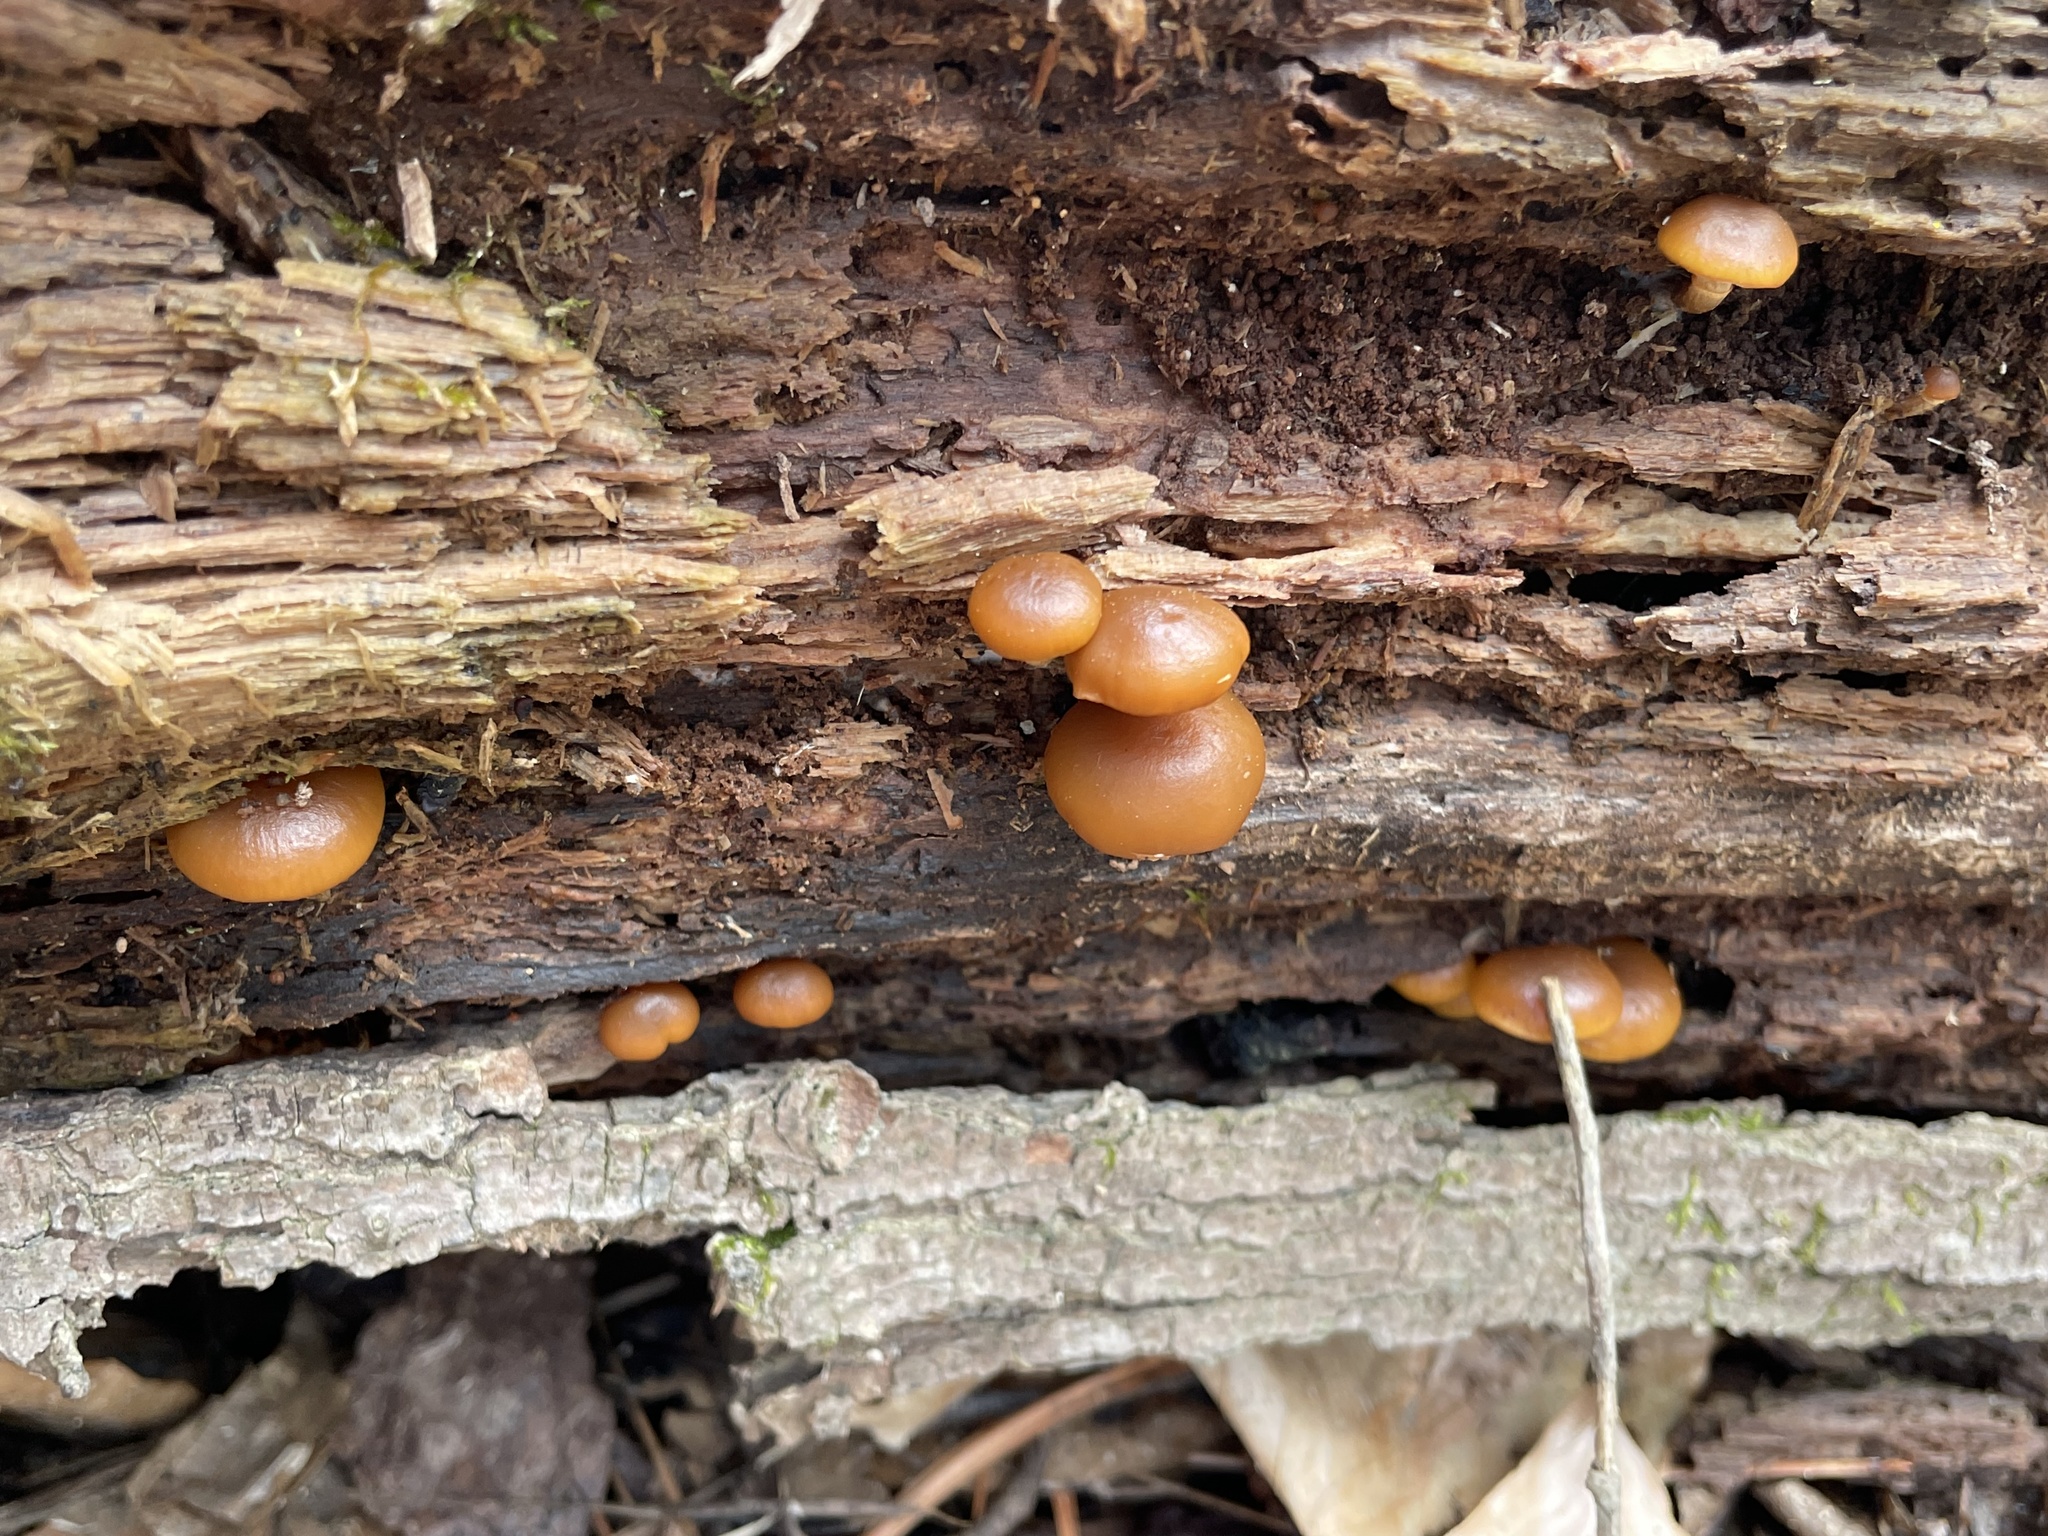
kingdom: Fungi
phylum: Basidiomycota
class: Agaricomycetes
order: Agaricales
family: Hymenogastraceae
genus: Galerina
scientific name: Galerina marginata
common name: Funeral bell
